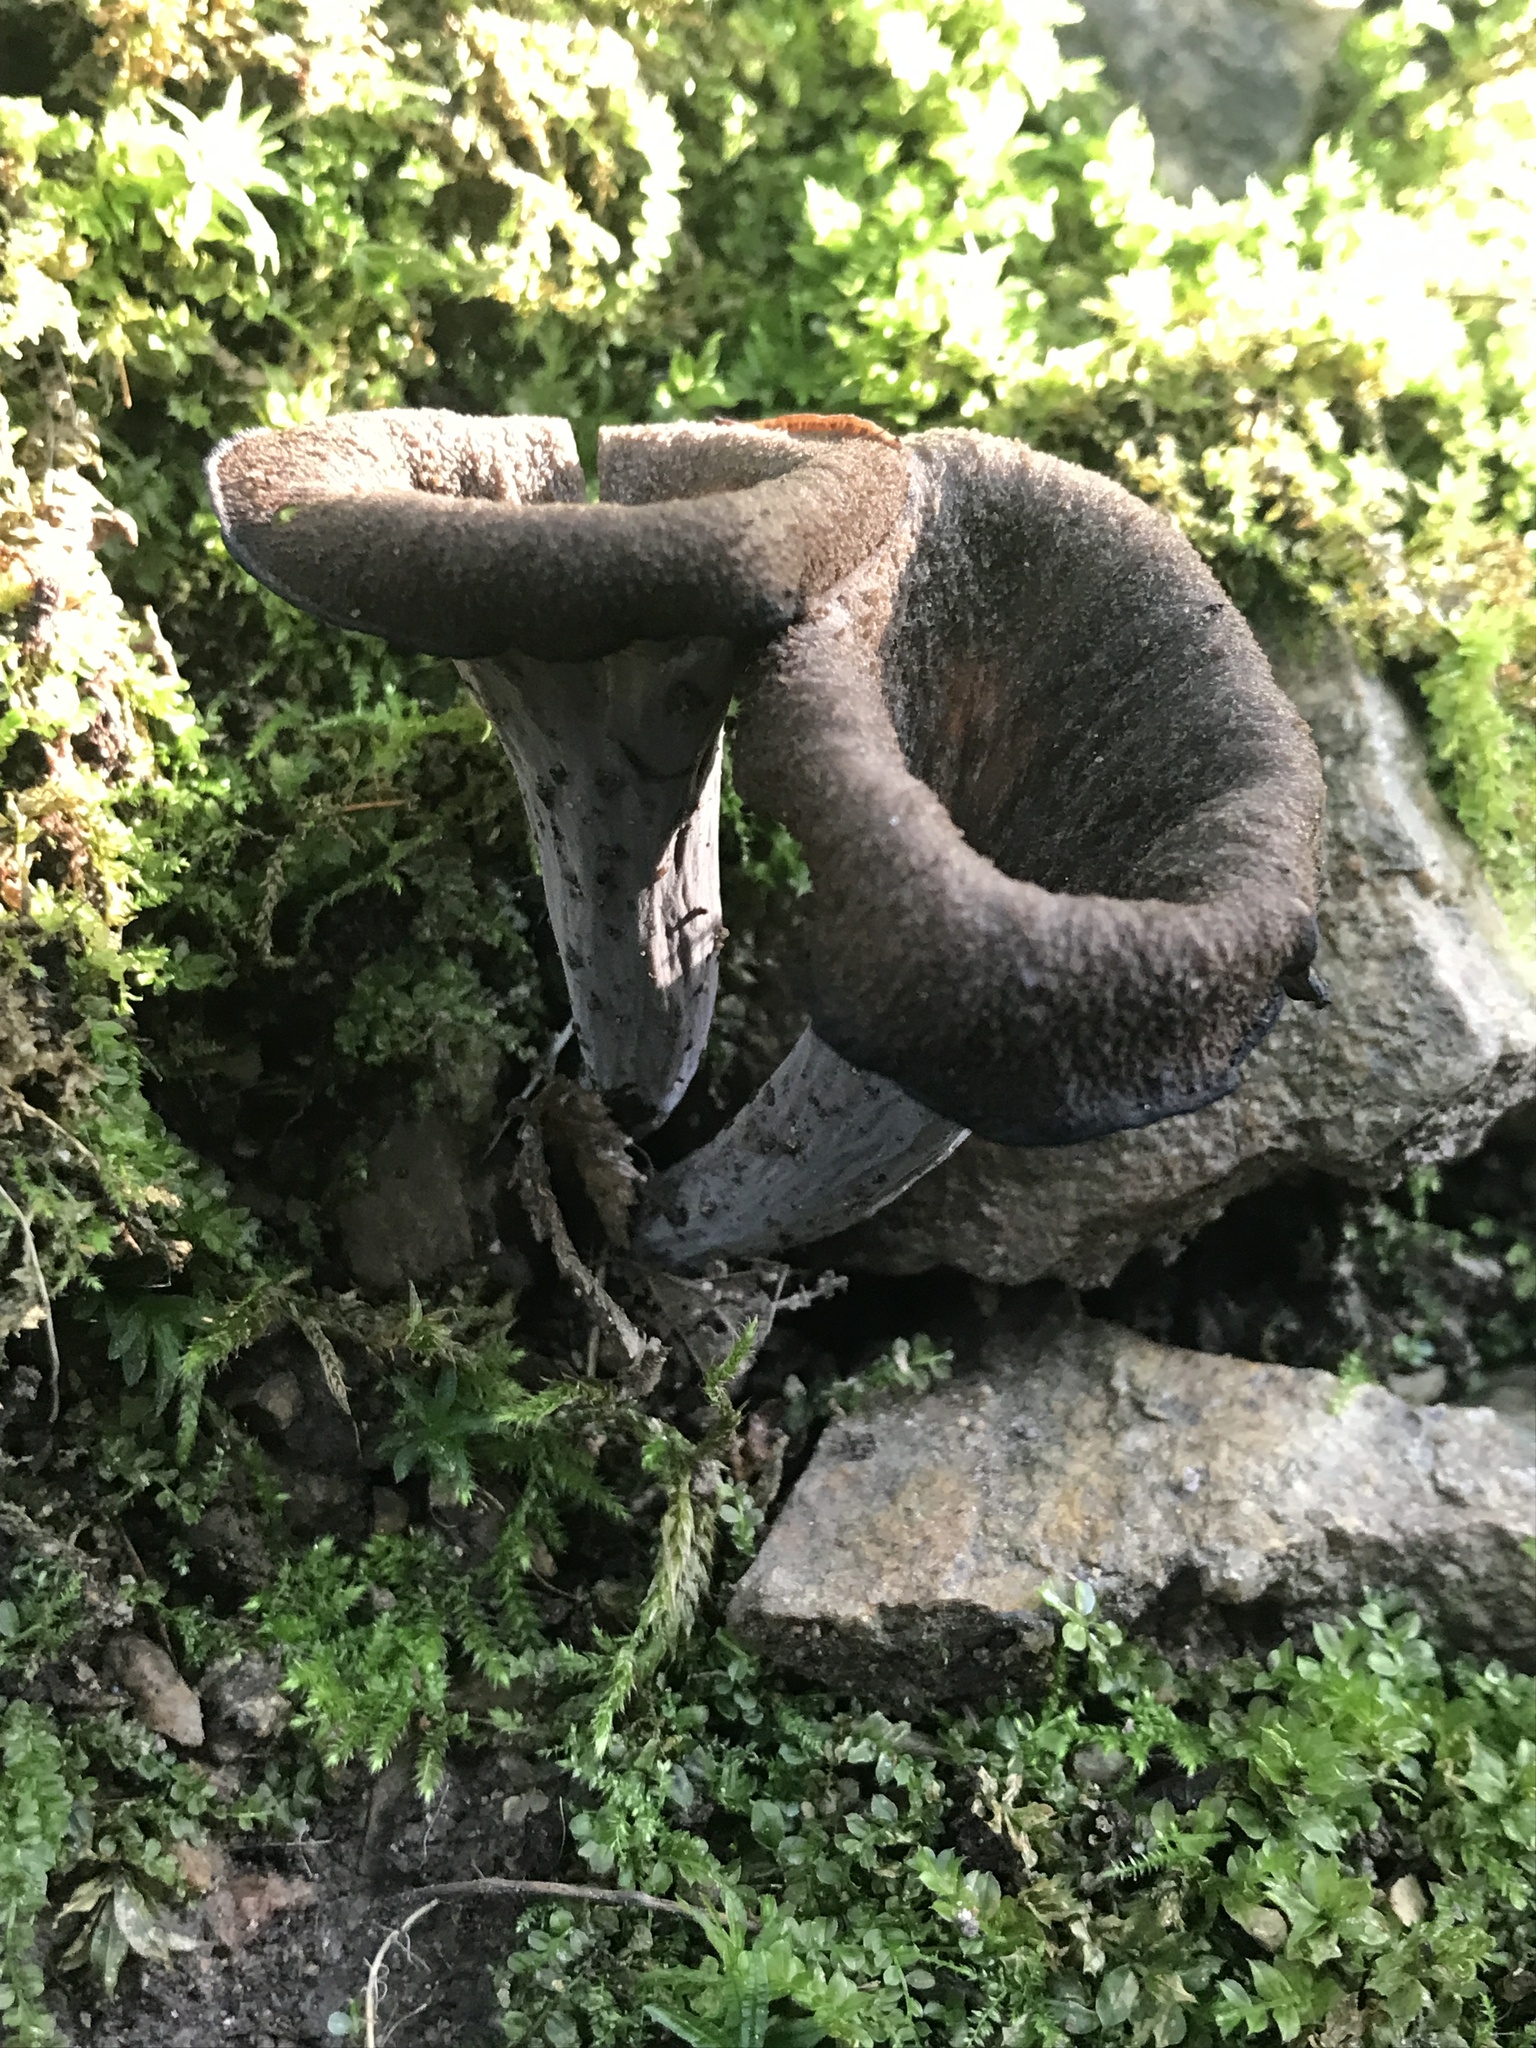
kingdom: Fungi
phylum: Basidiomycota
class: Agaricomycetes
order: Cantharellales
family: Hydnaceae
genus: Craterellus
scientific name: Craterellus cornucopioides
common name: Horn of plenty
